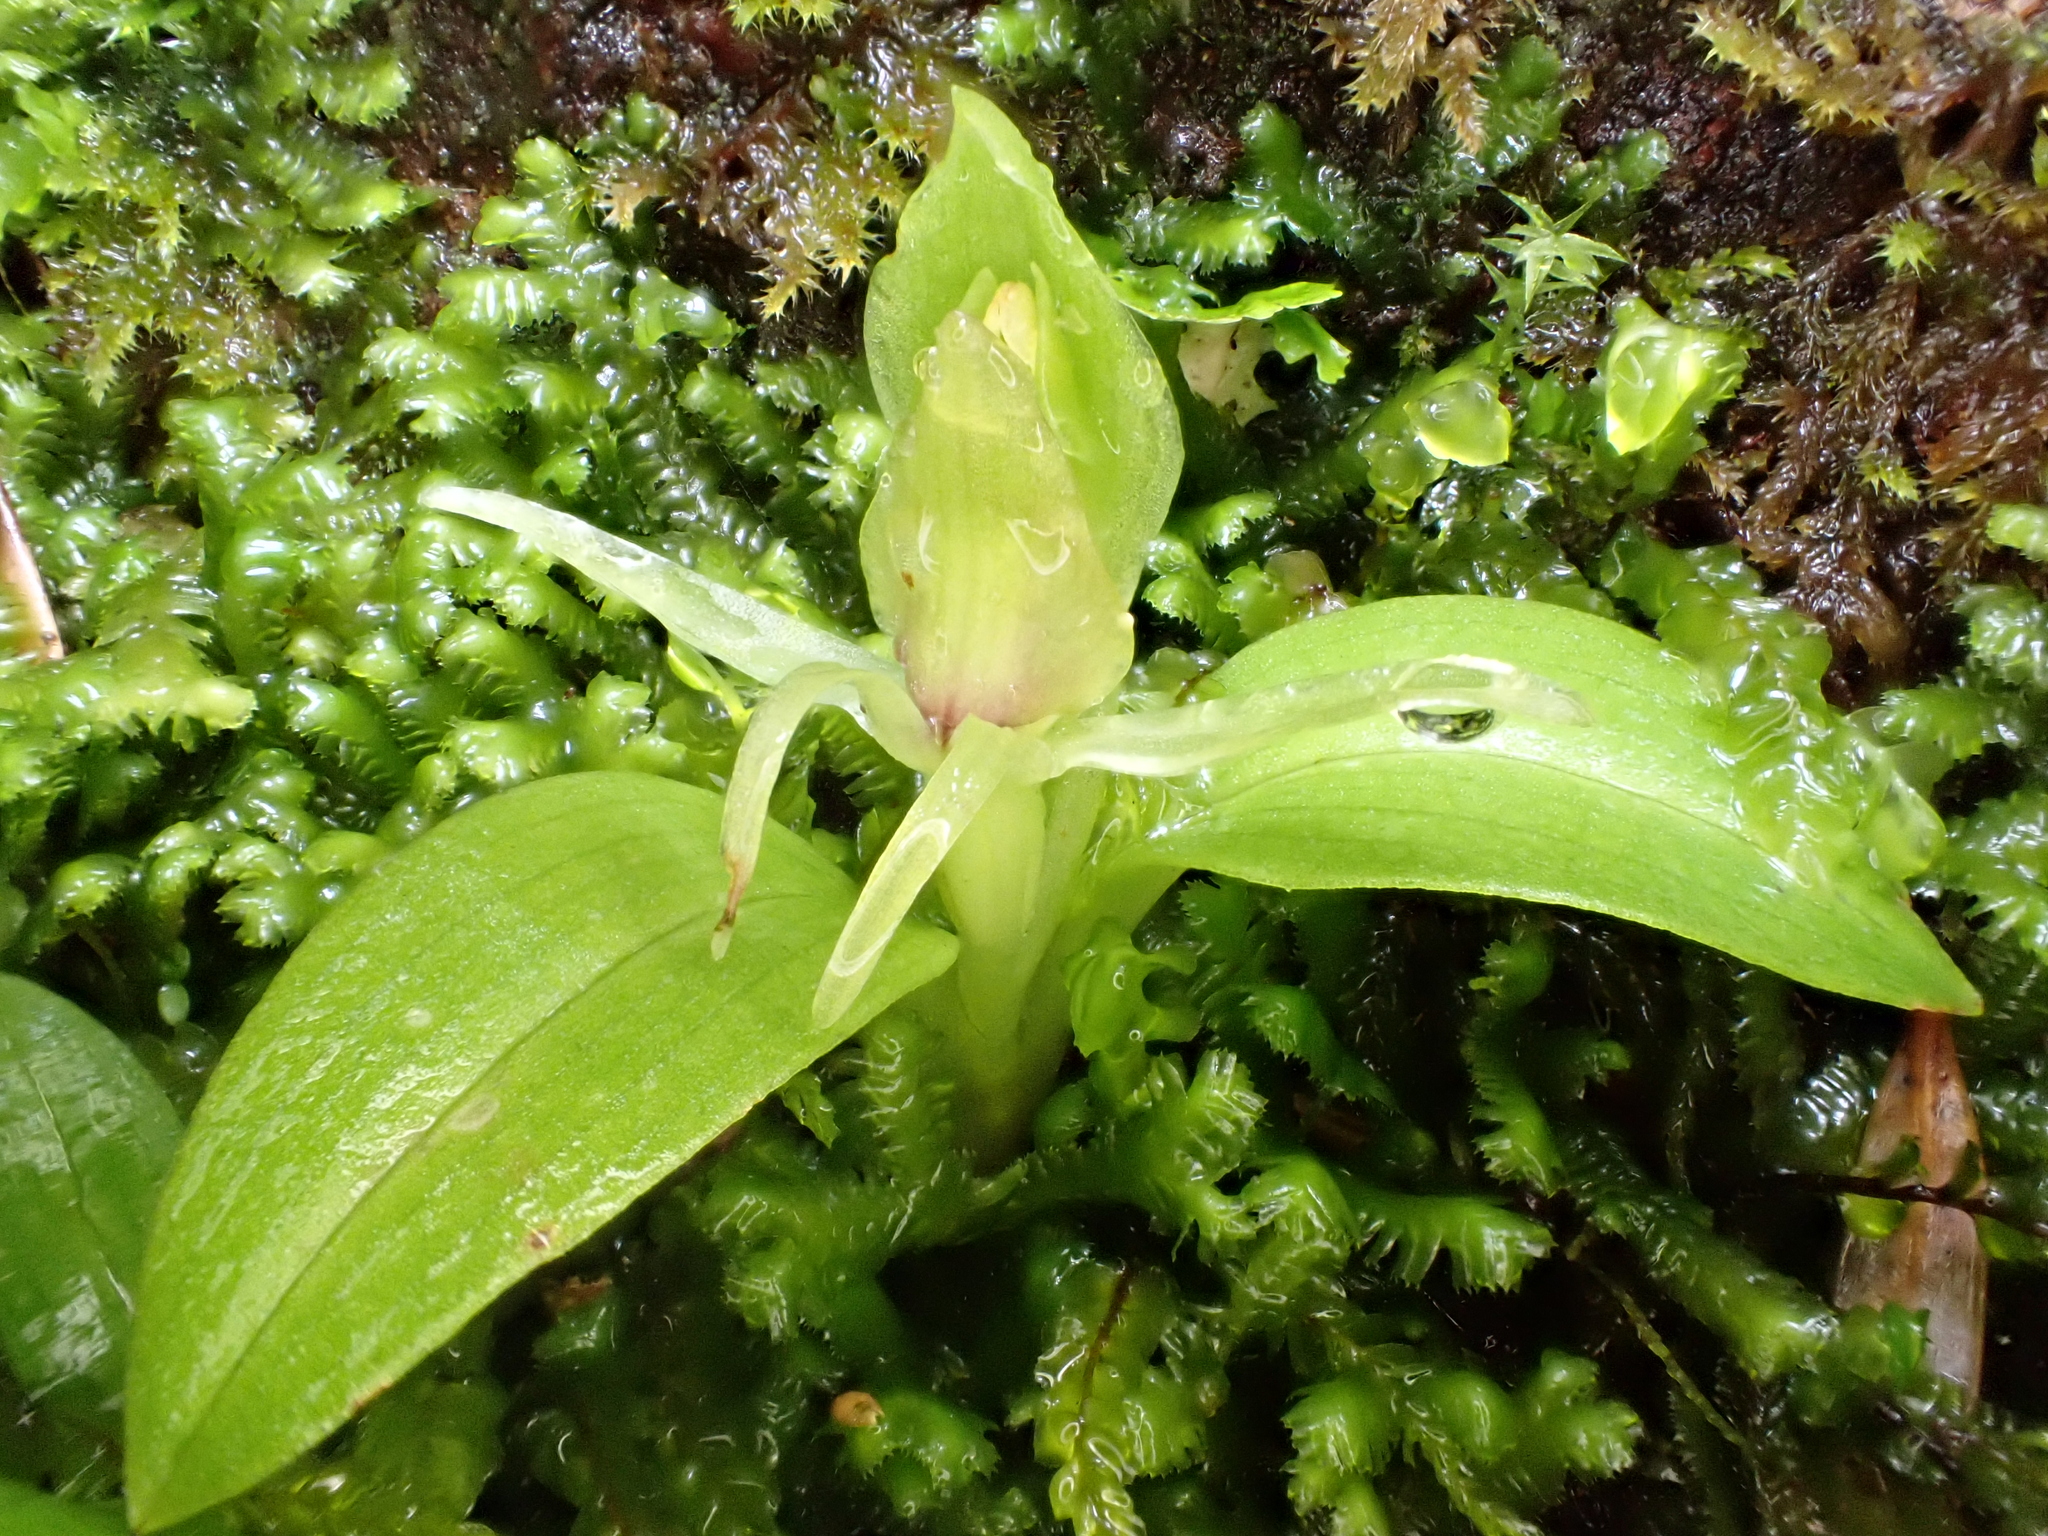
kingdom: Plantae
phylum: Tracheophyta
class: Liliopsida
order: Asparagales
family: Orchidaceae
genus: Chiloglottis
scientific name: Chiloglottis cornuta
